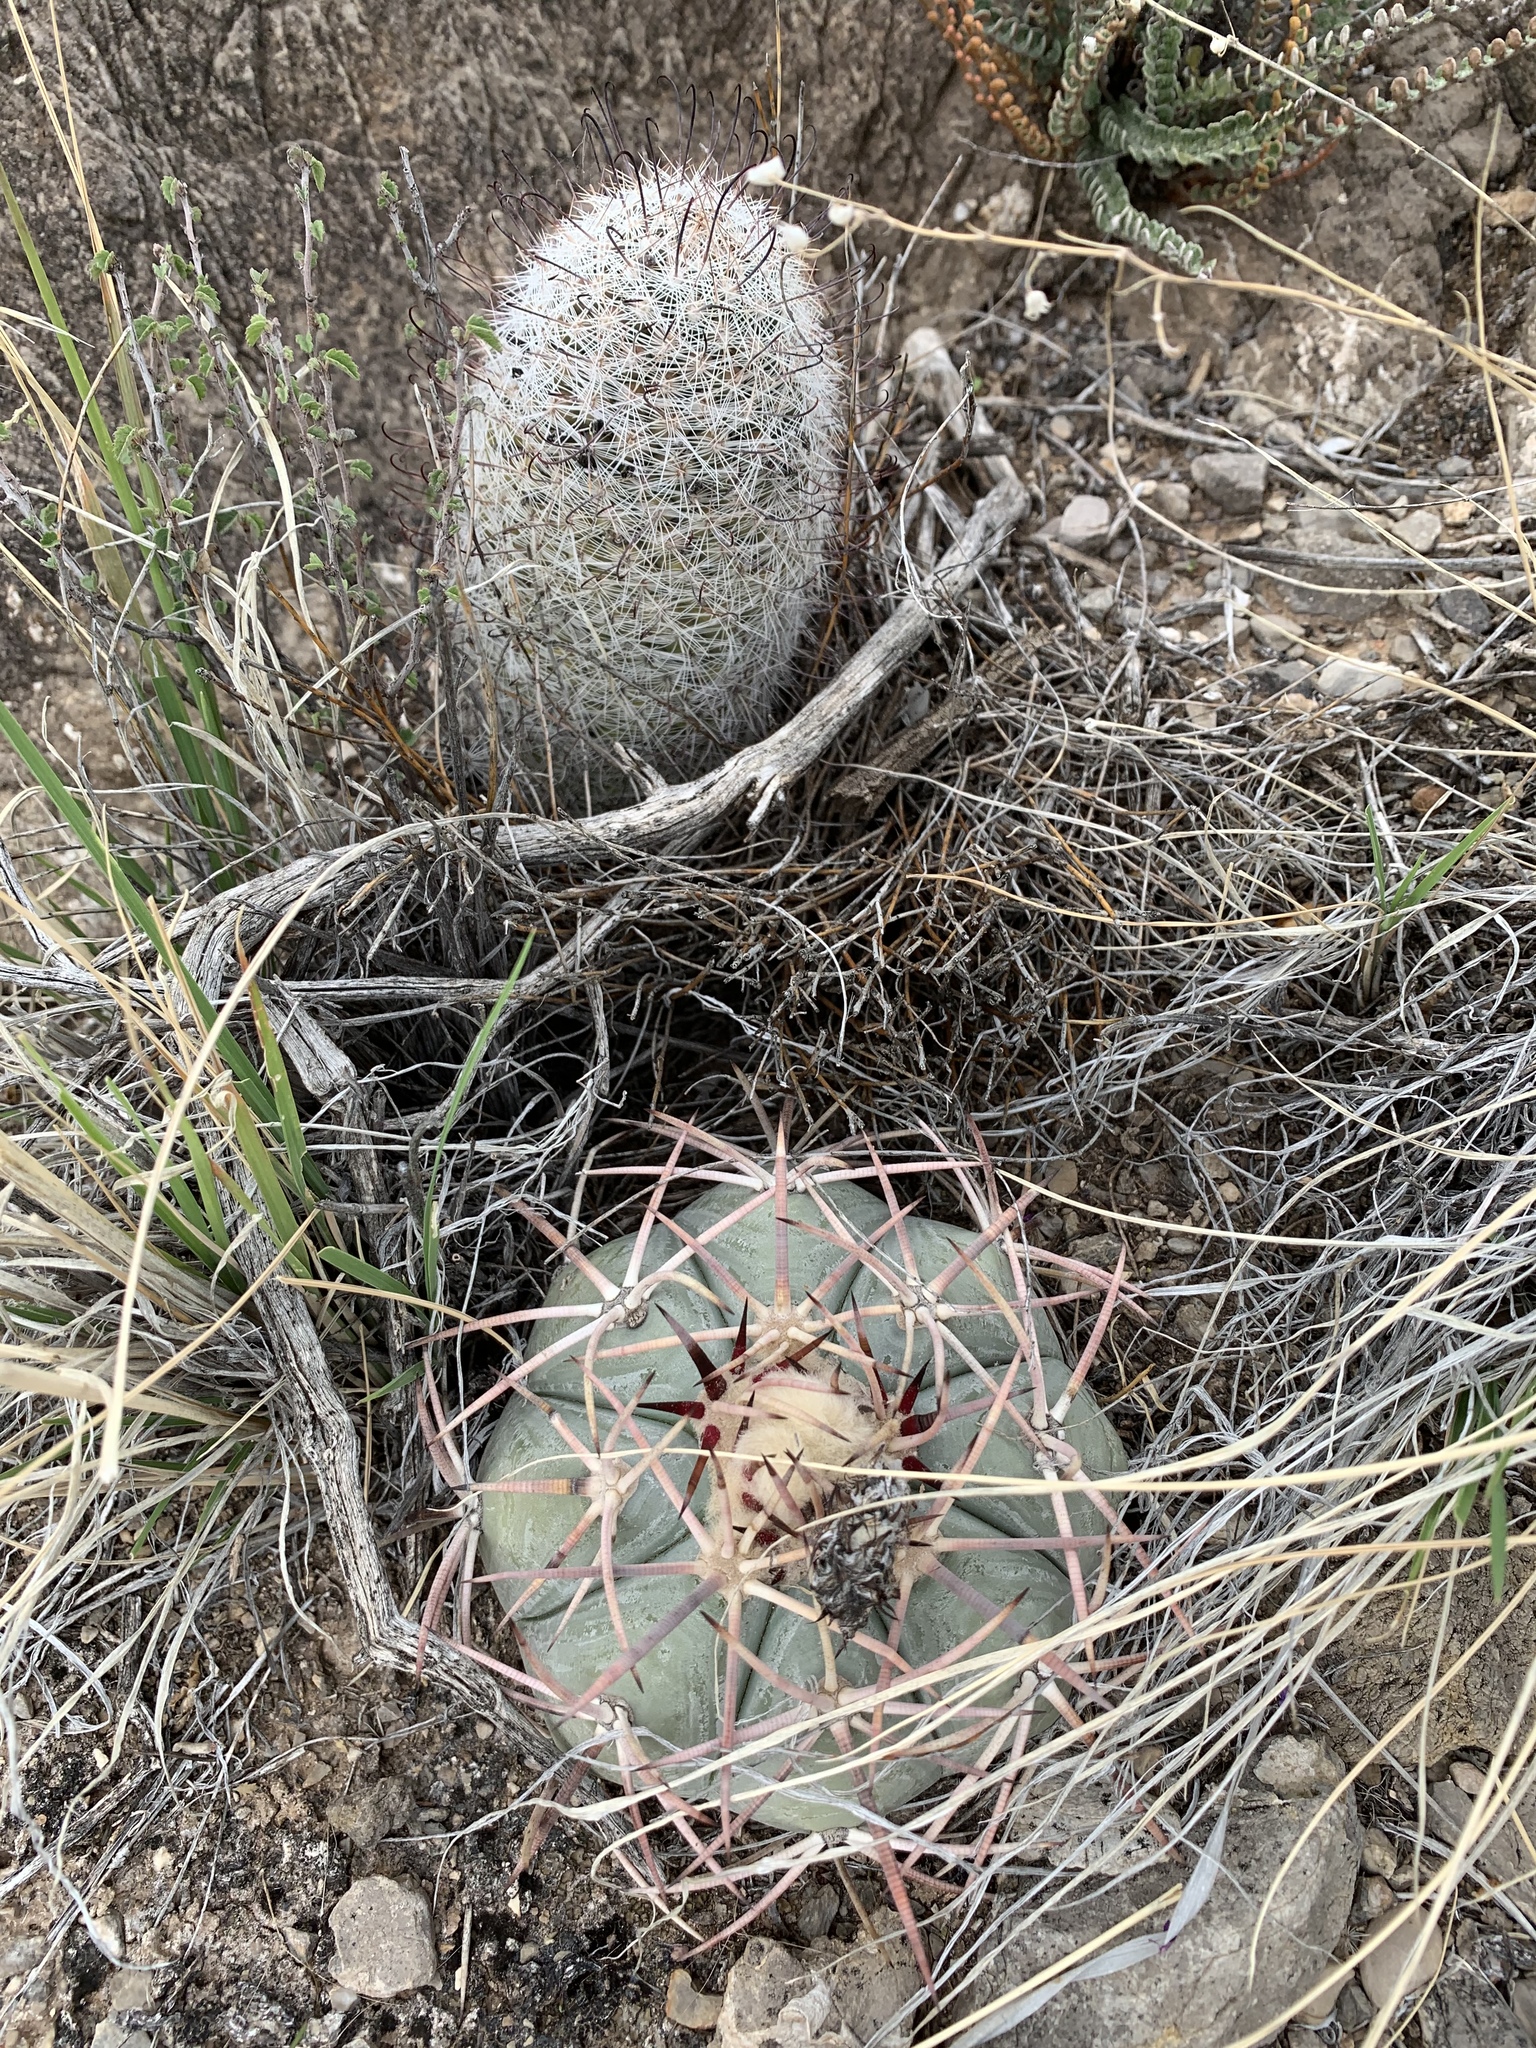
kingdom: Plantae
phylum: Tracheophyta
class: Magnoliopsida
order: Caryophyllales
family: Cactaceae
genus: Echinocactus
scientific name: Echinocactus horizonthalonius
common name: Devilshead
